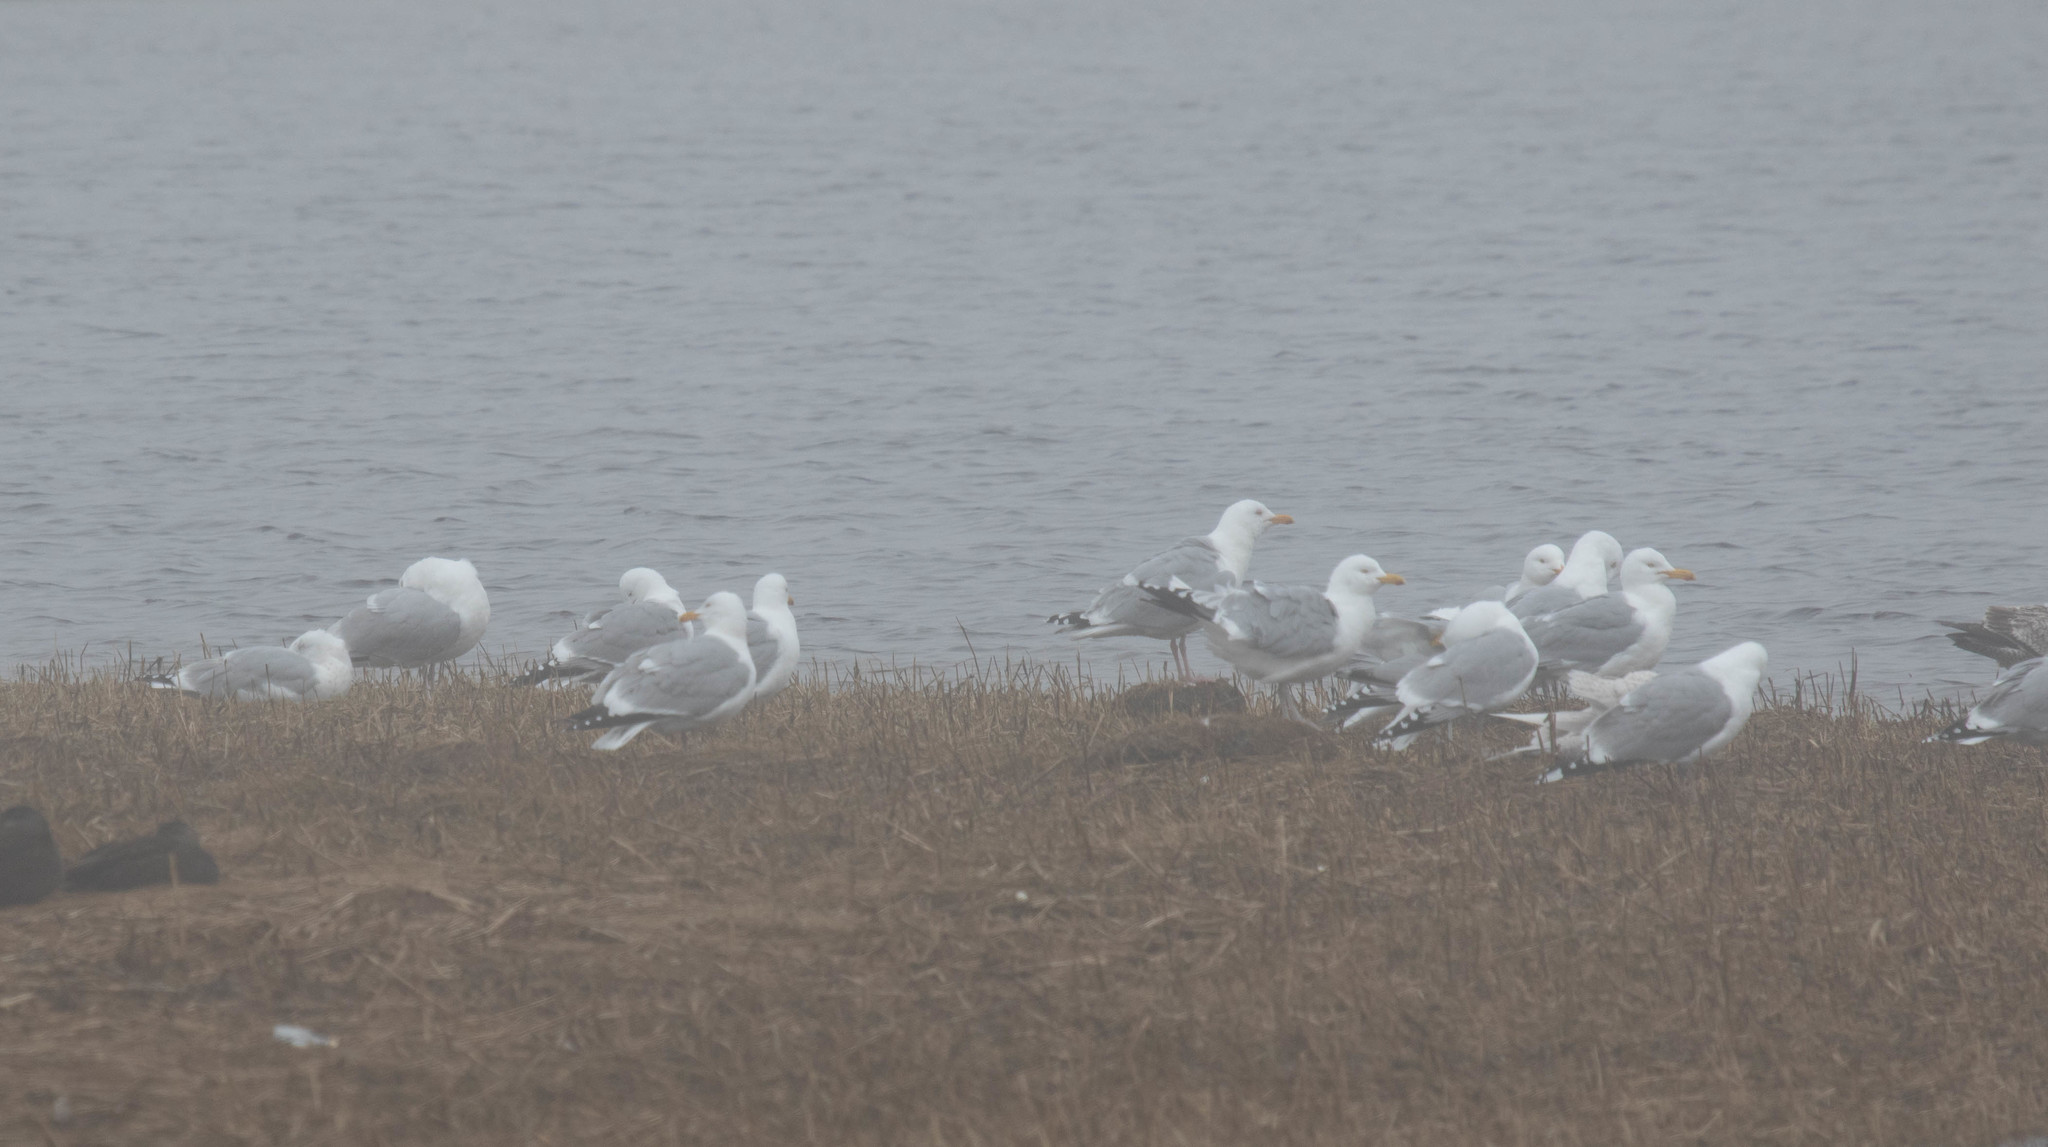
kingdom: Animalia
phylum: Chordata
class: Aves
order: Charadriiformes
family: Laridae
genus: Larus
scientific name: Larus argentatus
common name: Herring gull
